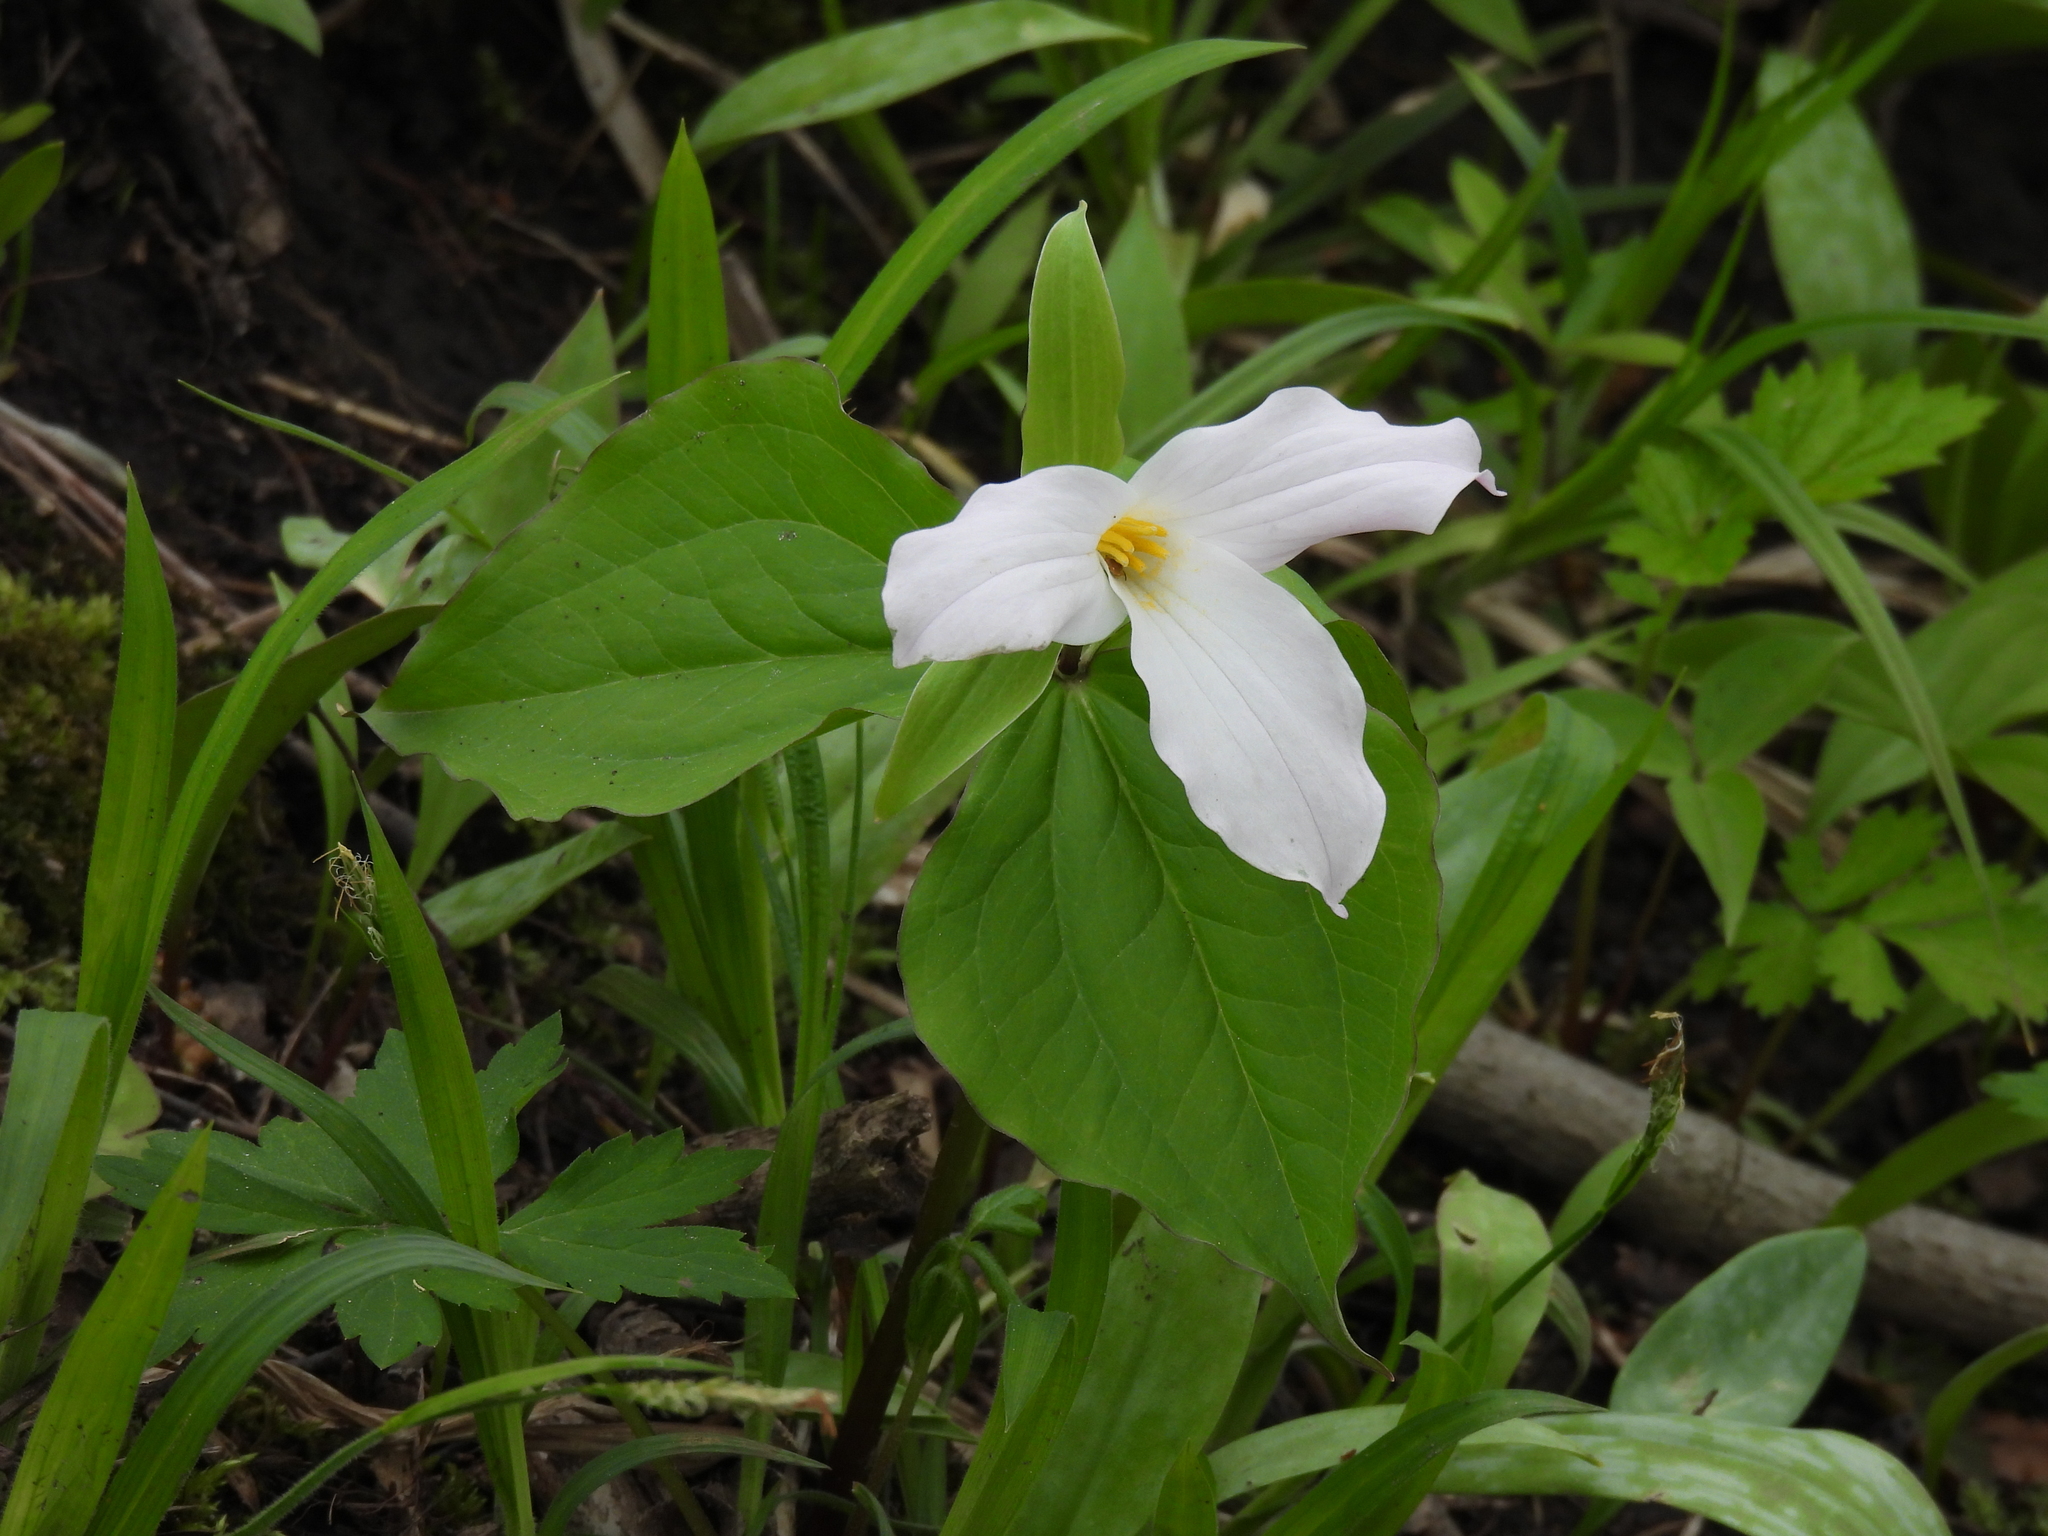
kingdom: Plantae
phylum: Tracheophyta
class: Liliopsida
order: Liliales
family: Melanthiaceae
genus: Trillium
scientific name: Trillium grandiflorum
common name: Great white trillium
